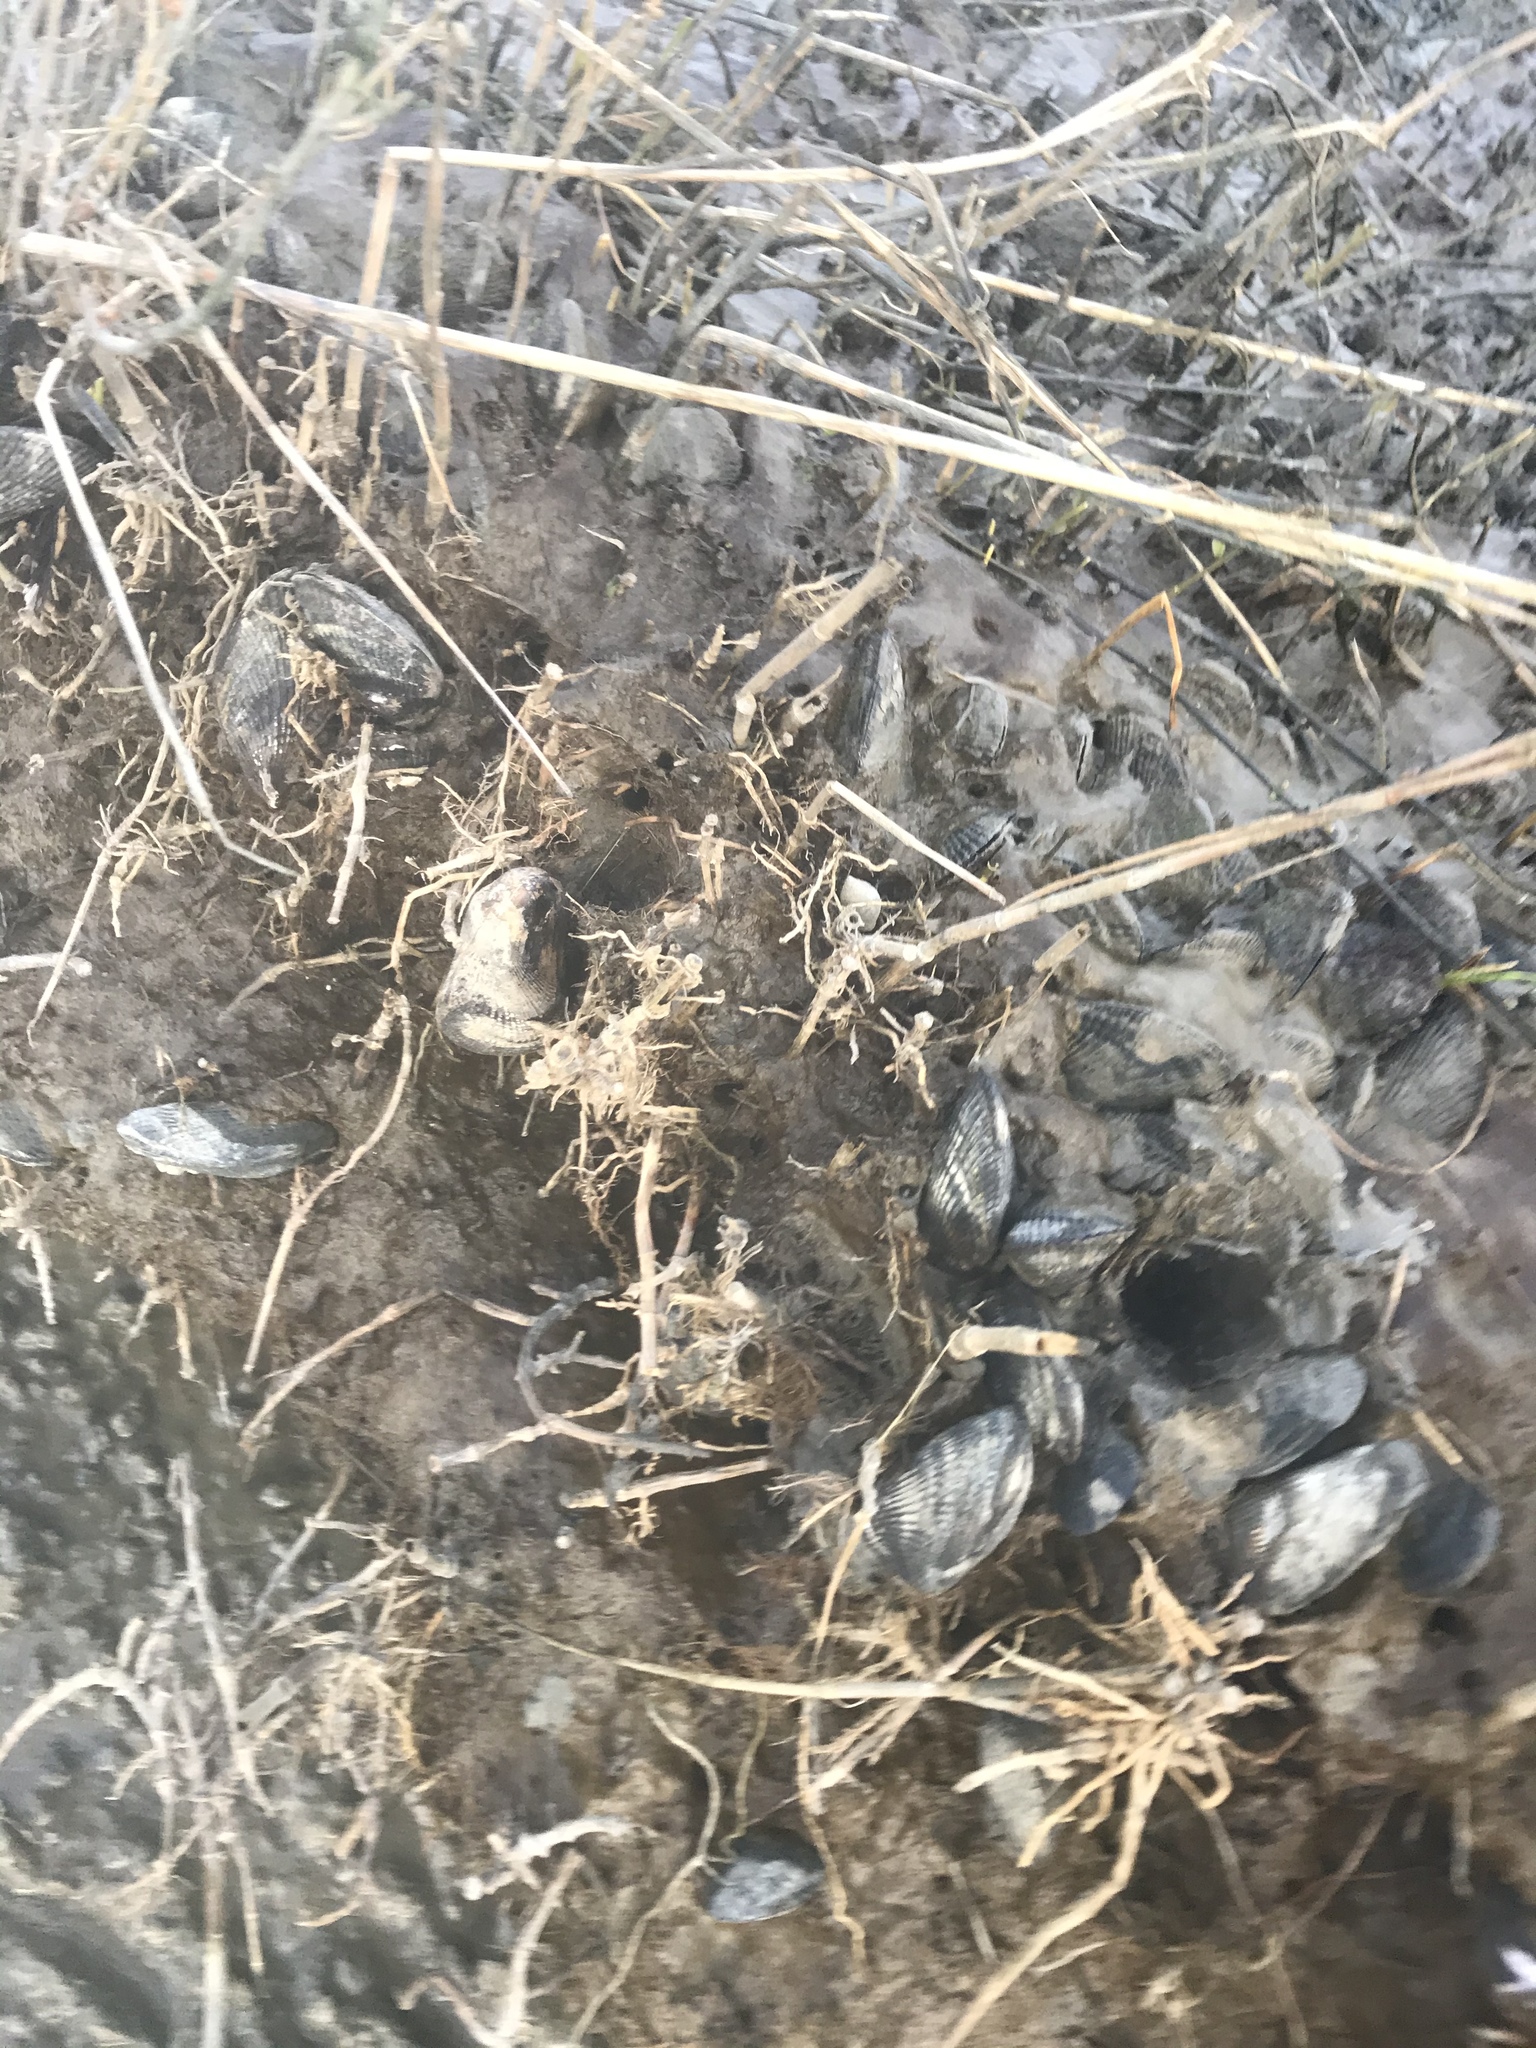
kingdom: Animalia
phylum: Mollusca
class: Bivalvia
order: Mytilida
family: Mytilidae
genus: Geukensia
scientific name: Geukensia demissa
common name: Ribbed mussel
